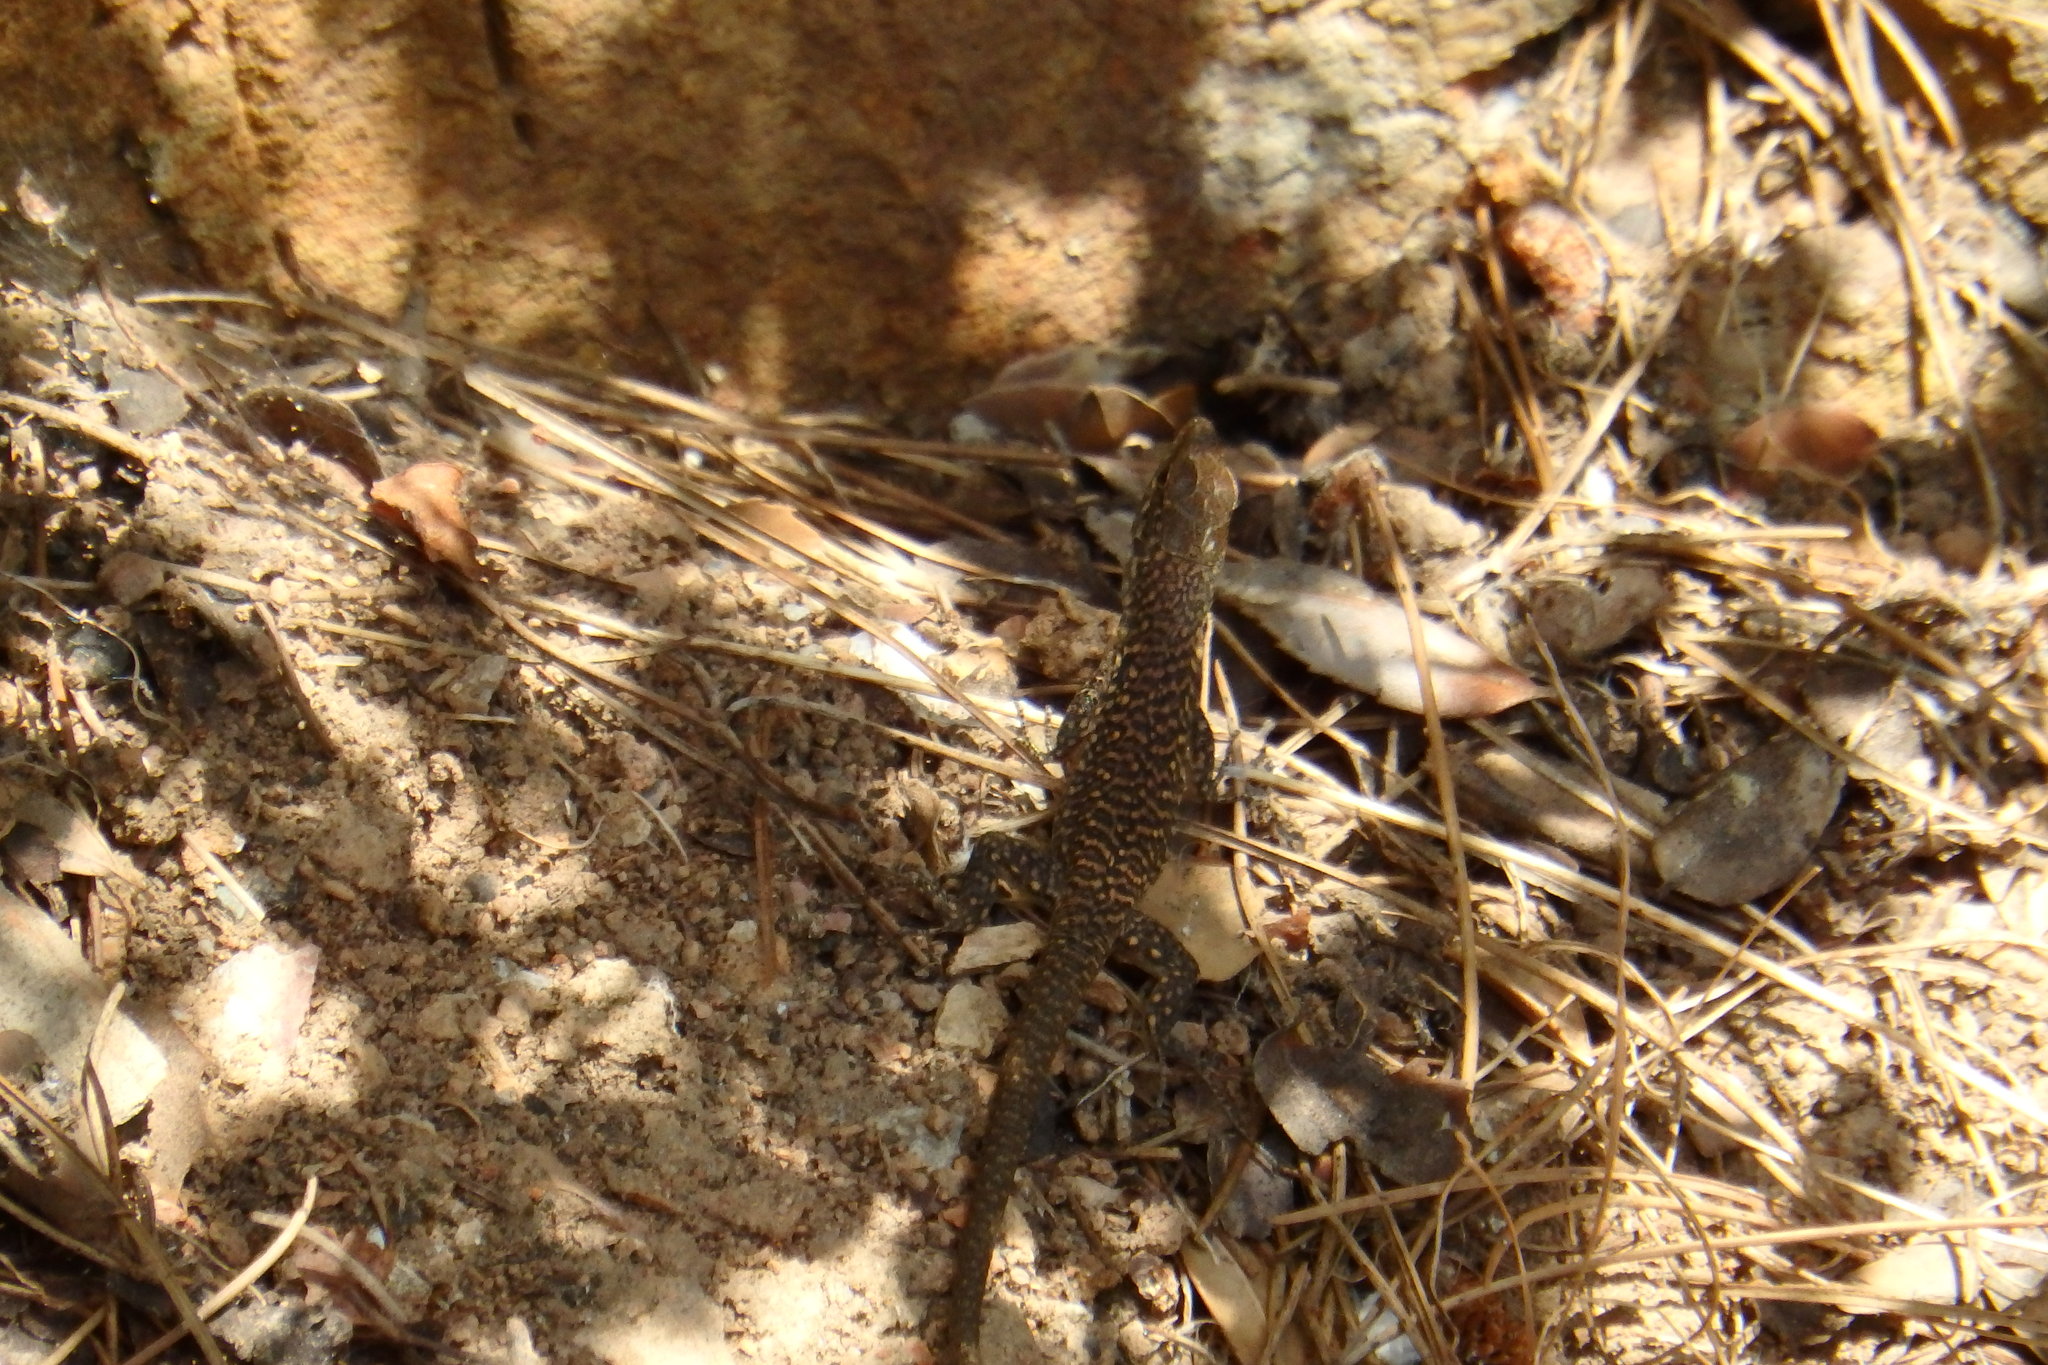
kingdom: Animalia
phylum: Chordata
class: Squamata
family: Lacertidae
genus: Podarcis
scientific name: Podarcis siculus
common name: Italian wall lizard
